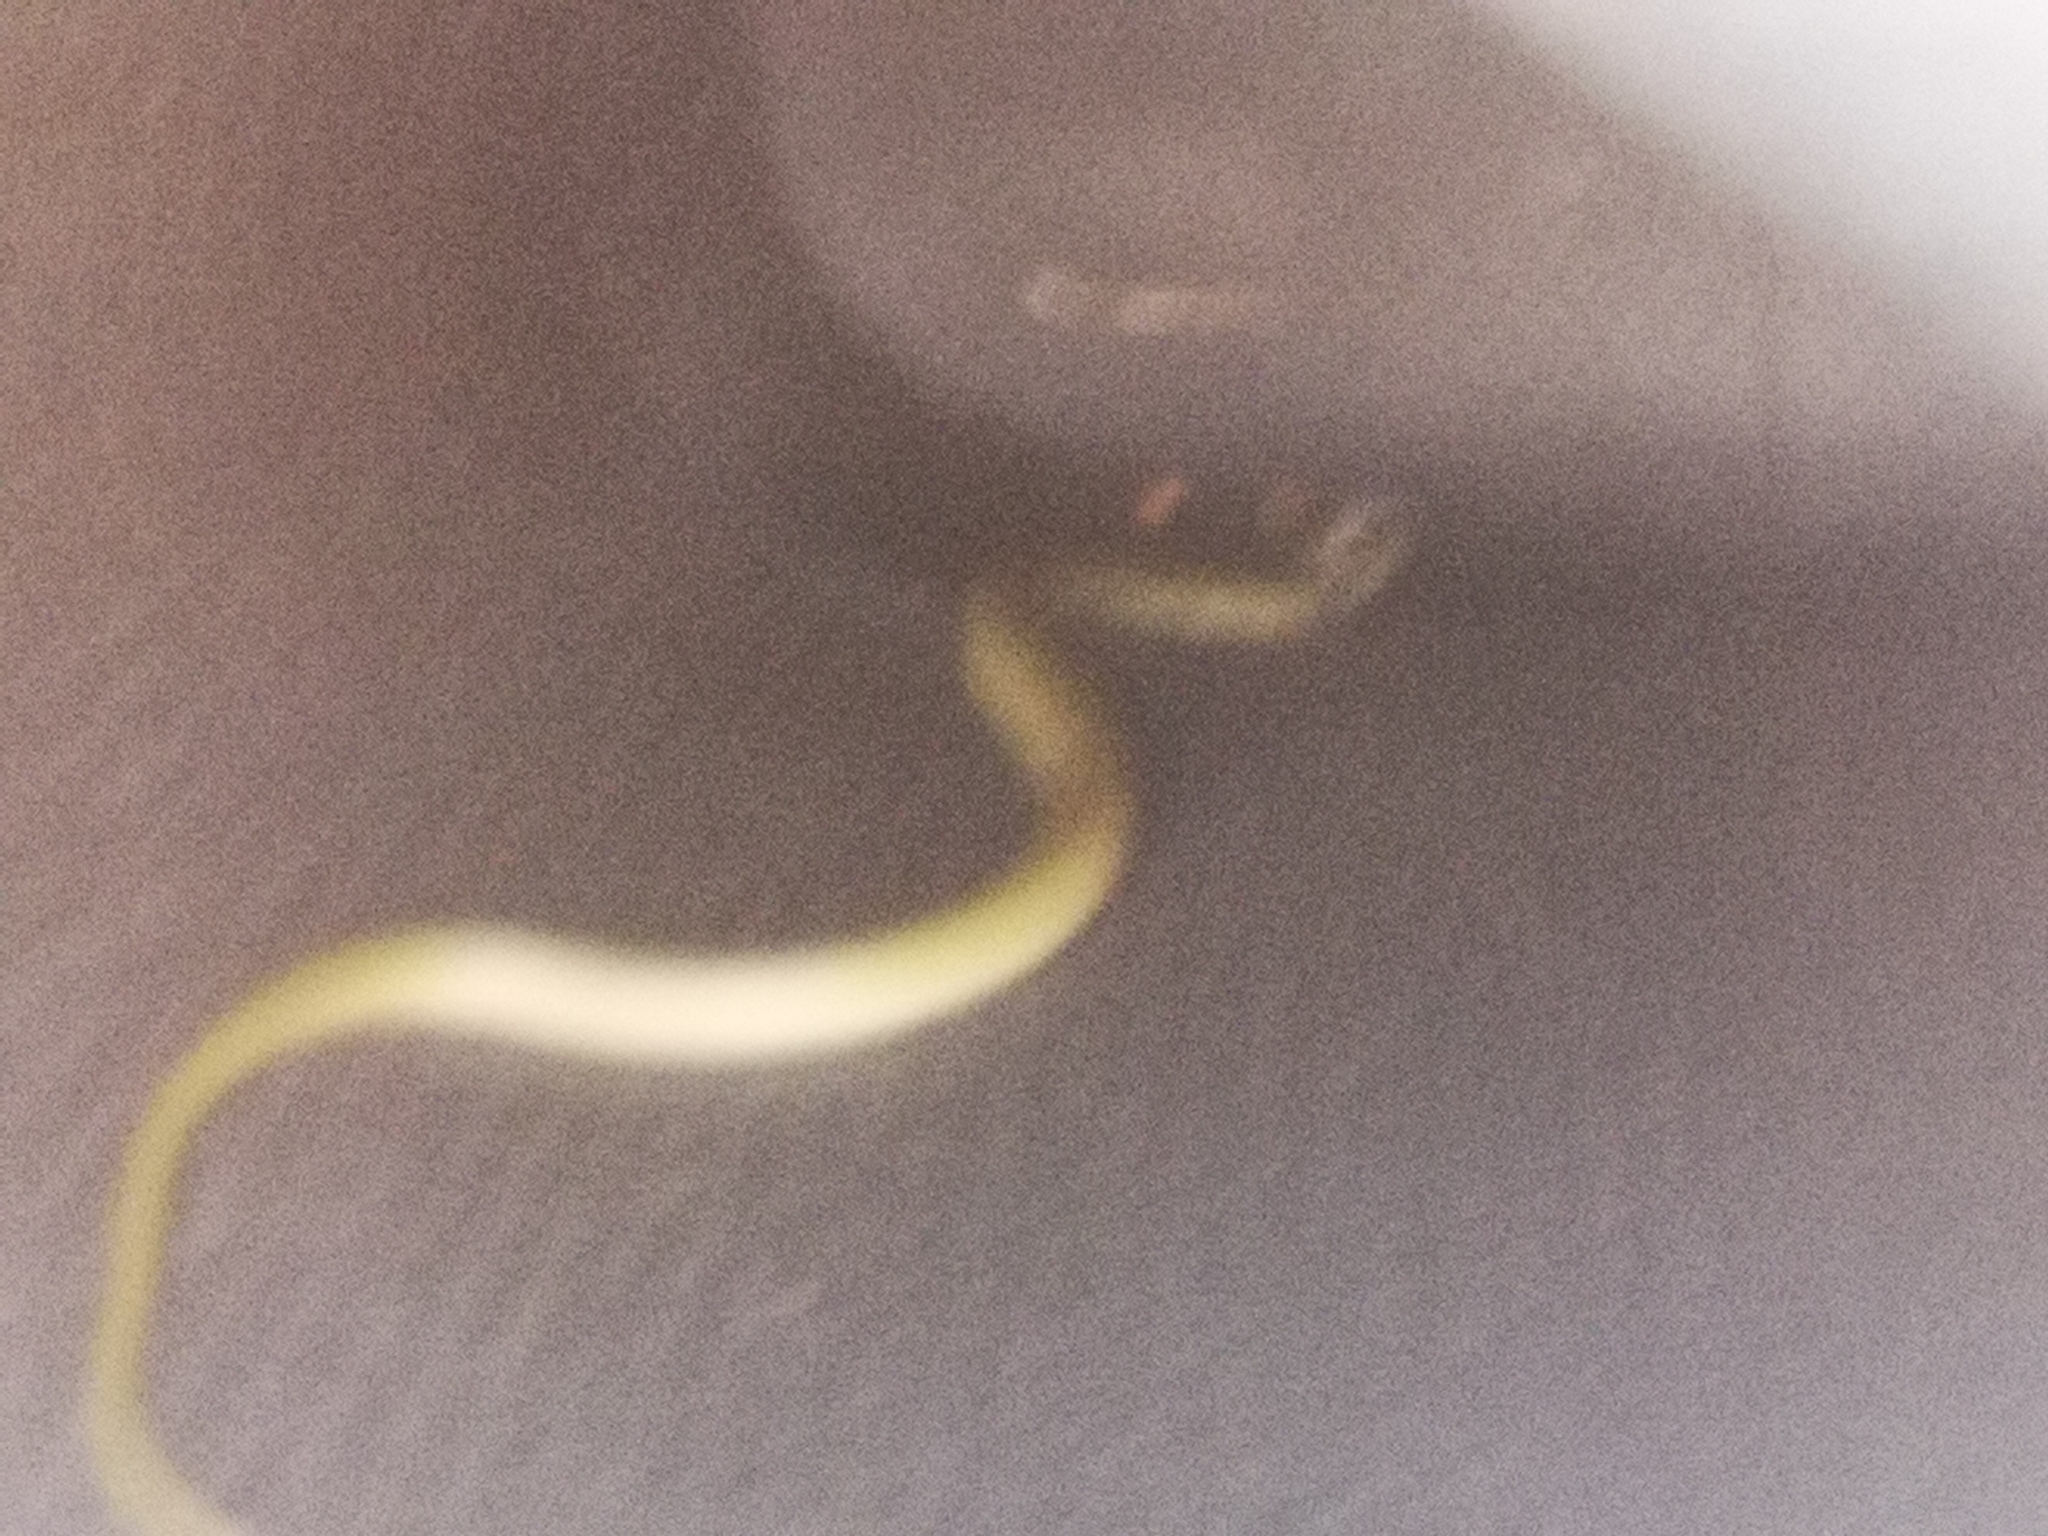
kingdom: Animalia
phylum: Chordata
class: Squamata
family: Colubridae
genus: Opheodrys
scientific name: Opheodrys vernalis
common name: Smooth green snake
